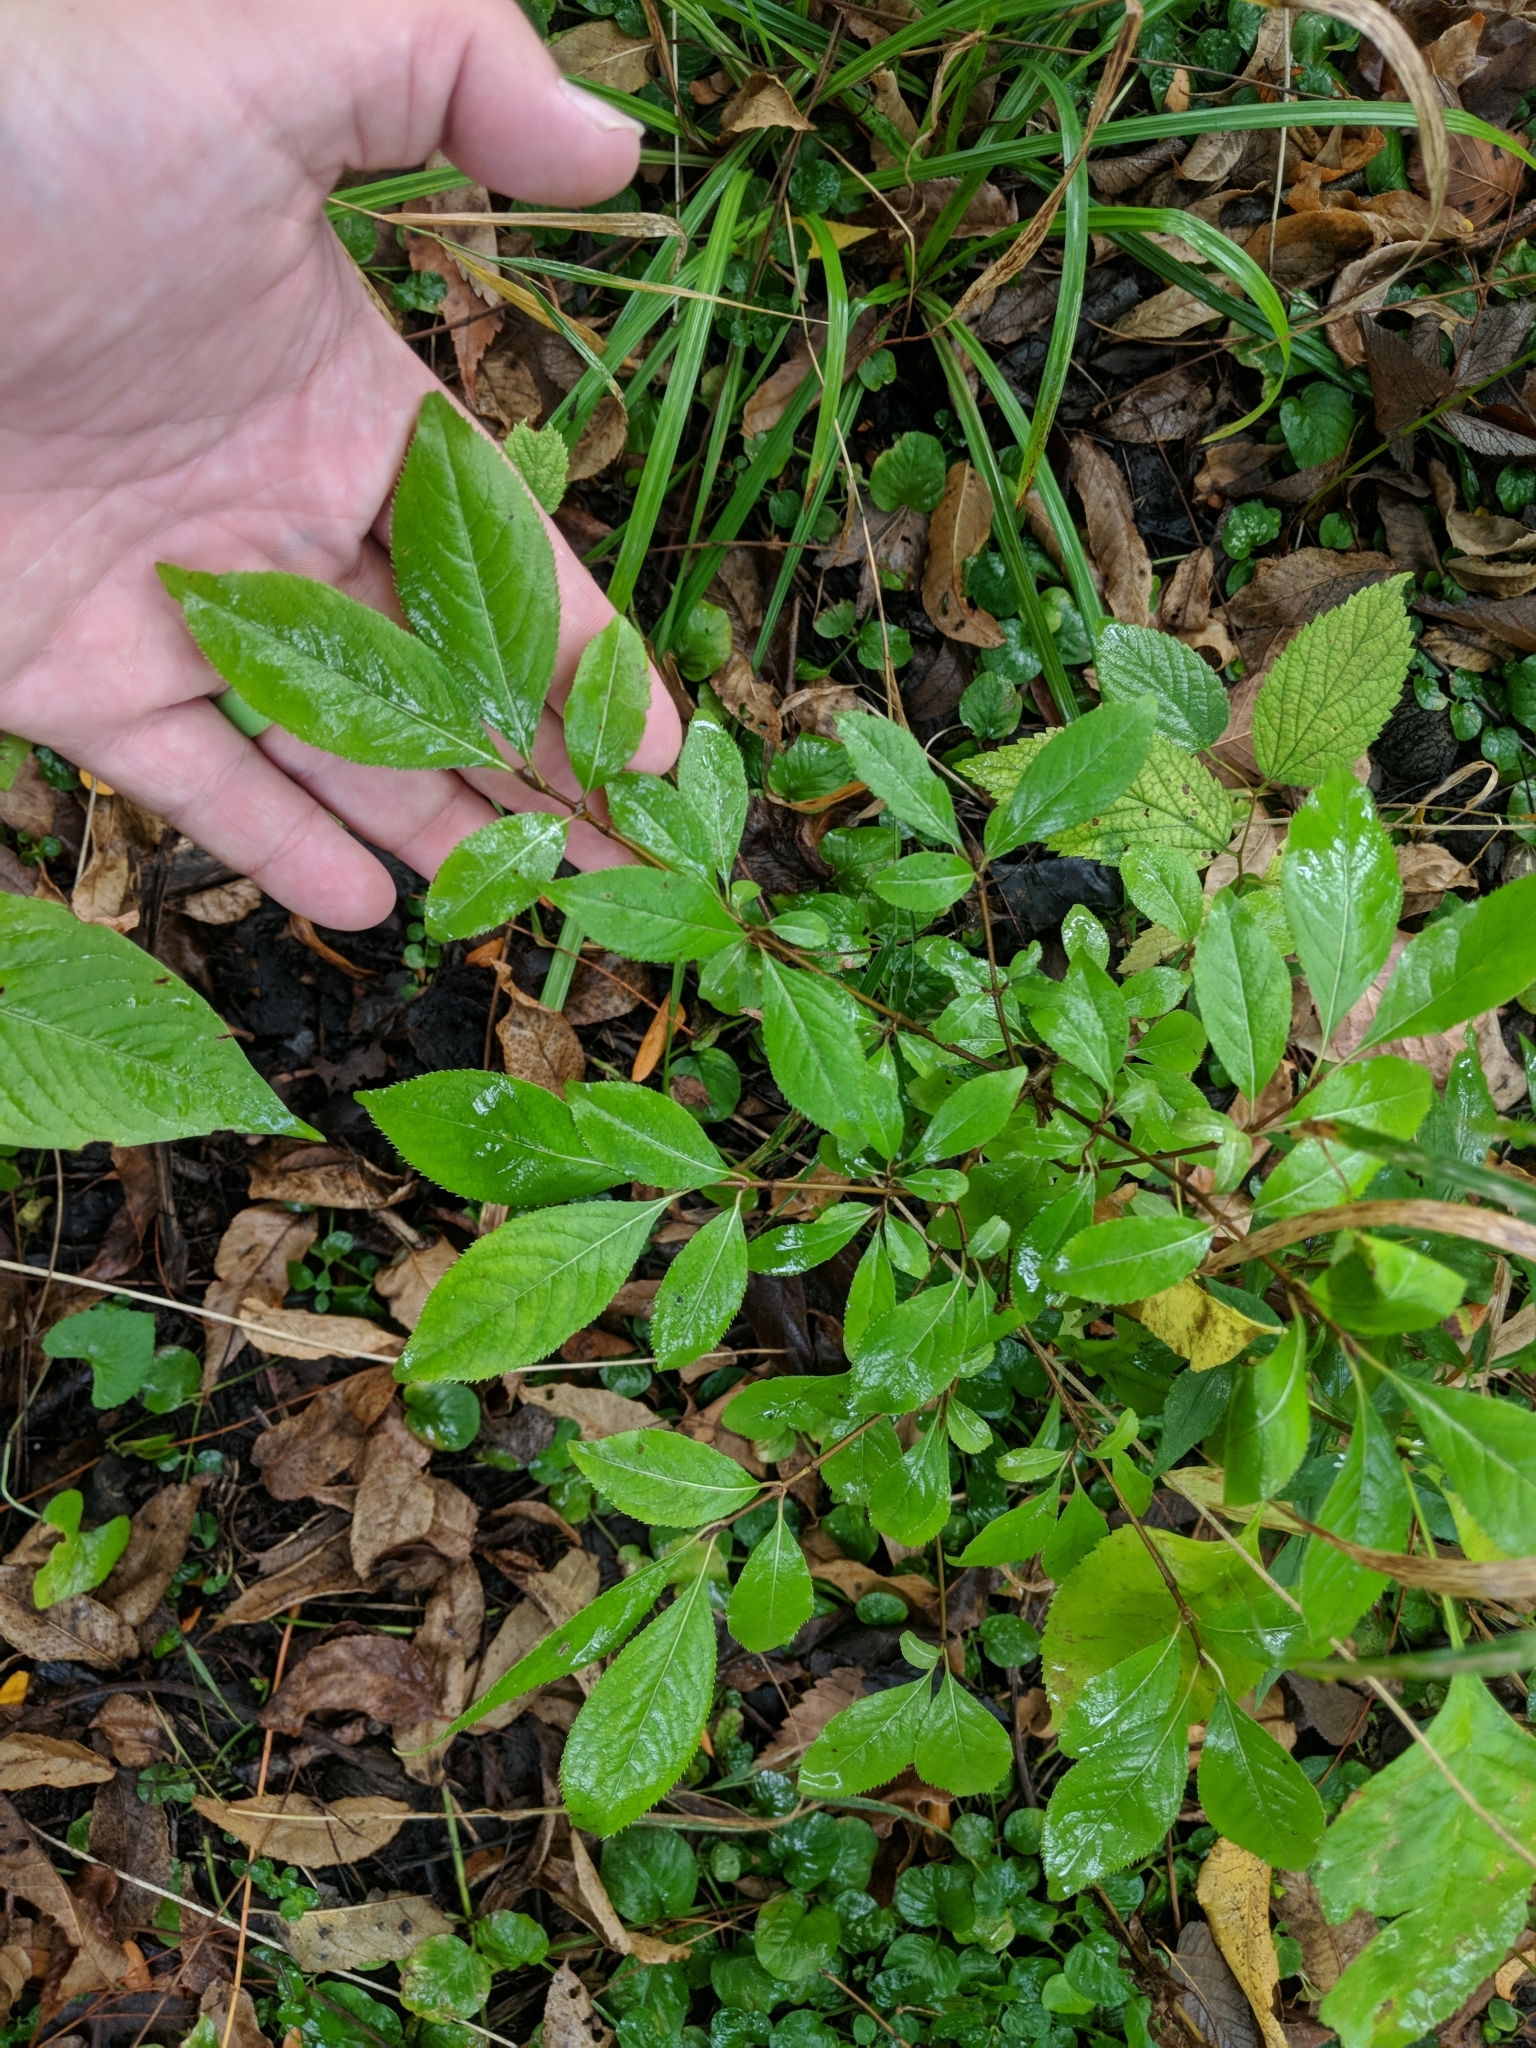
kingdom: Plantae
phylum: Tracheophyta
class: Magnoliopsida
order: Dipsacales
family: Viburnaceae
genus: Viburnum
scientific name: Viburnum prunifolium
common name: Black haw
